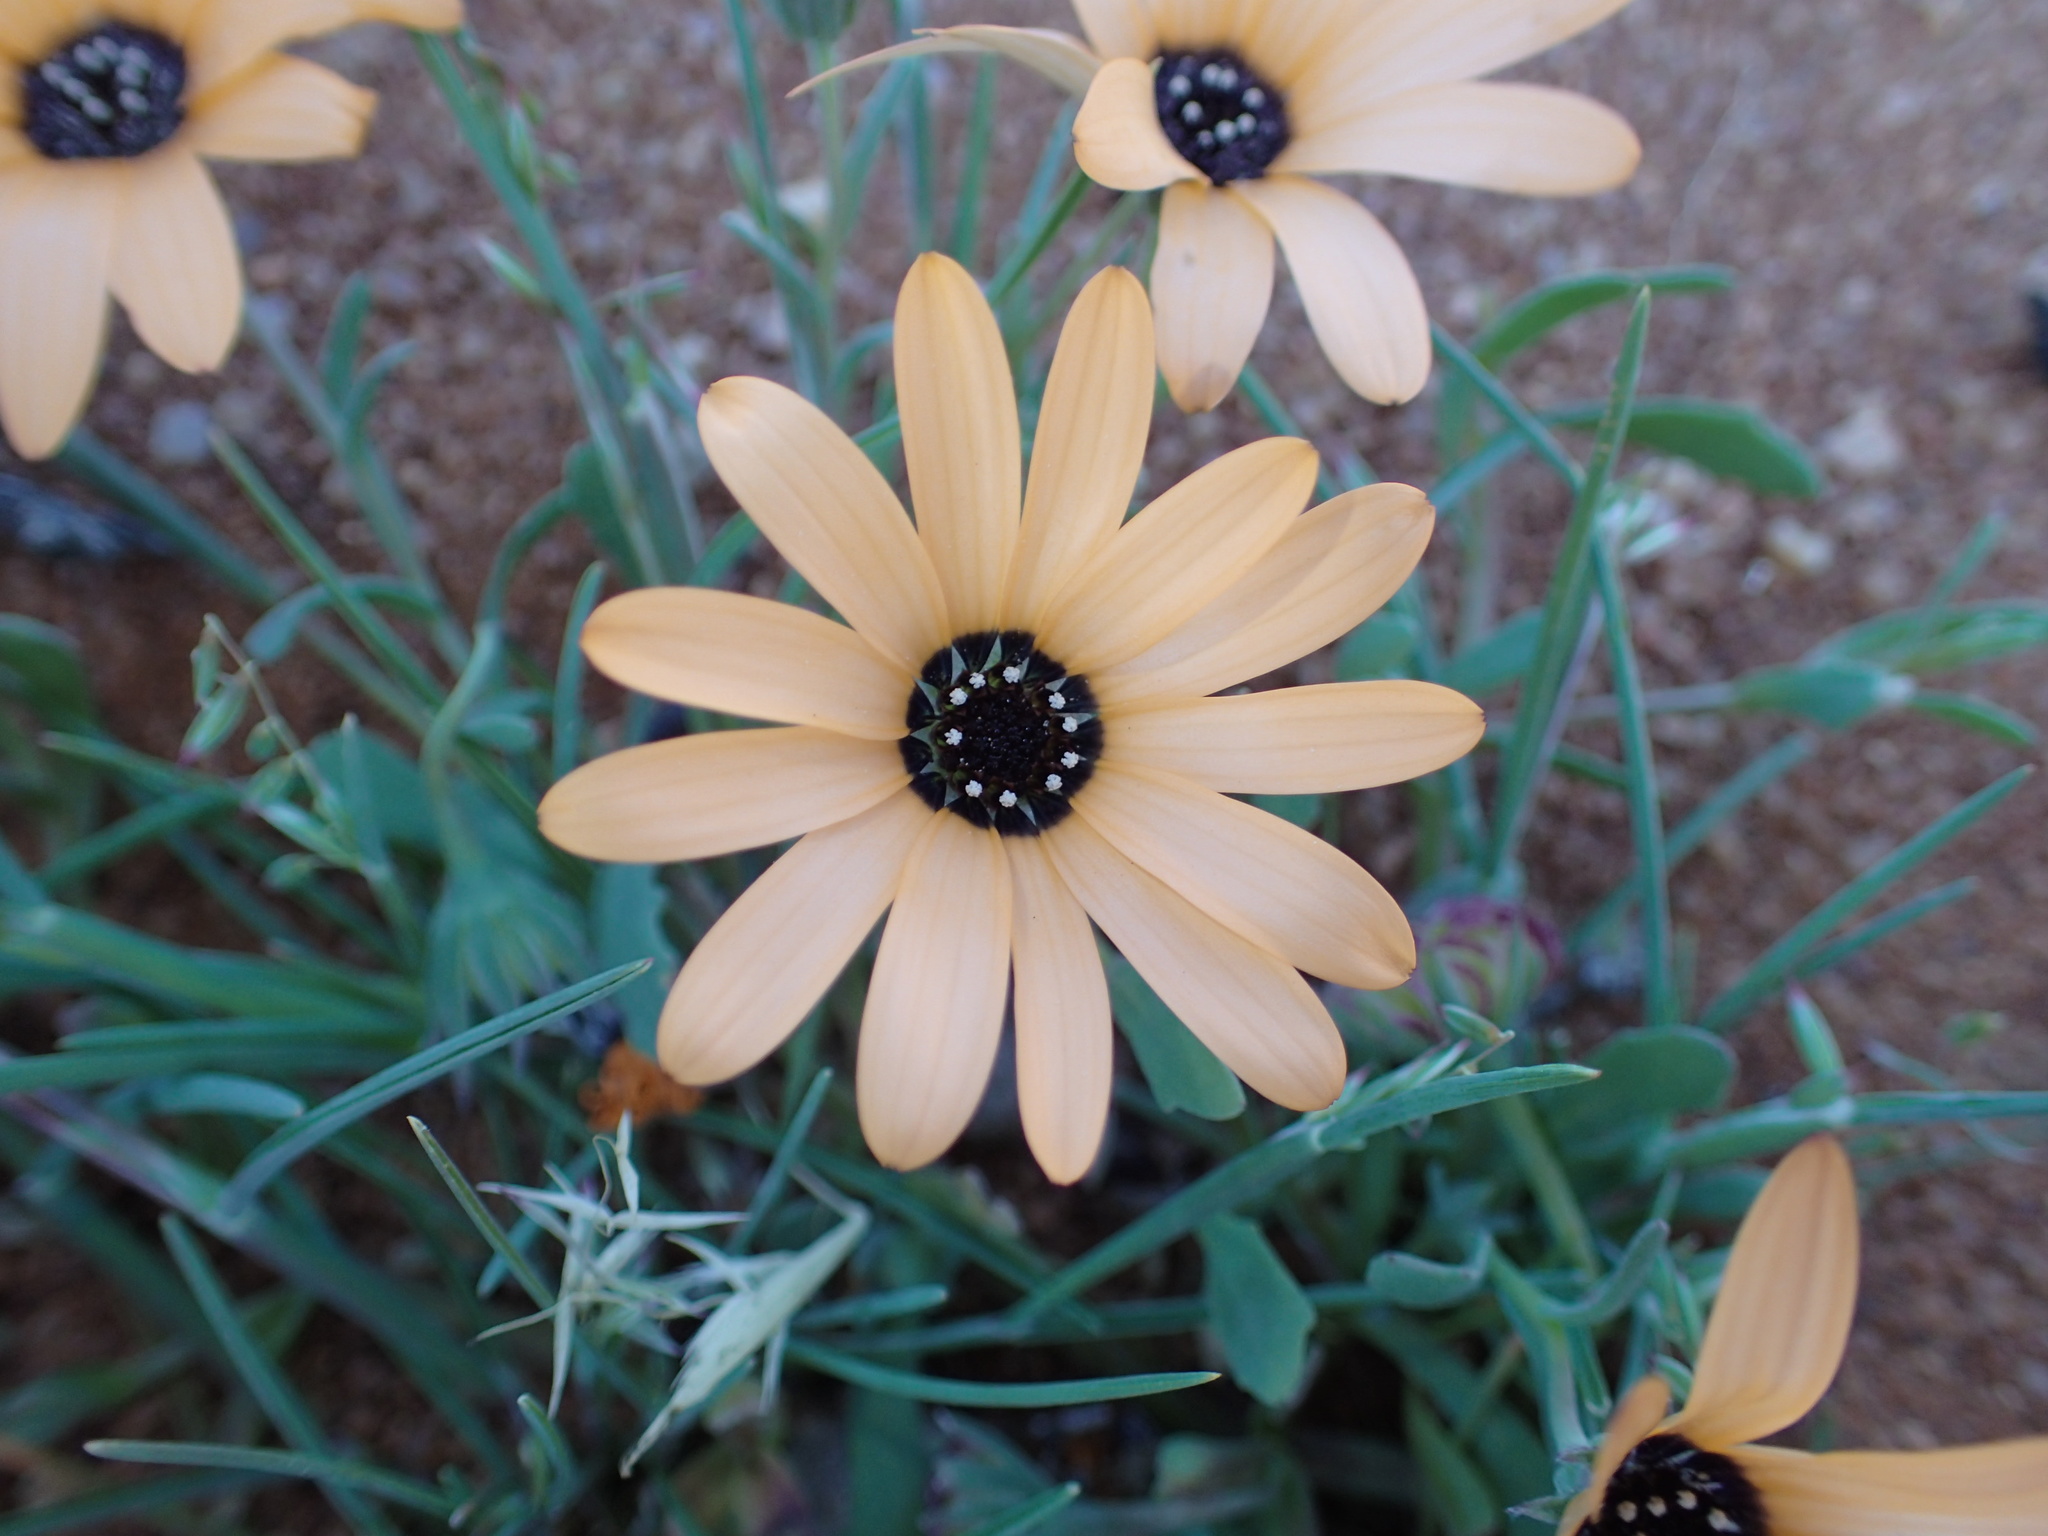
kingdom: Plantae
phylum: Tracheophyta
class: Magnoliopsida
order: Asterales
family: Asteraceae
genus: Dimorphotheca
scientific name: Dimorphotheca sinuata
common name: Glandular cape marigold
